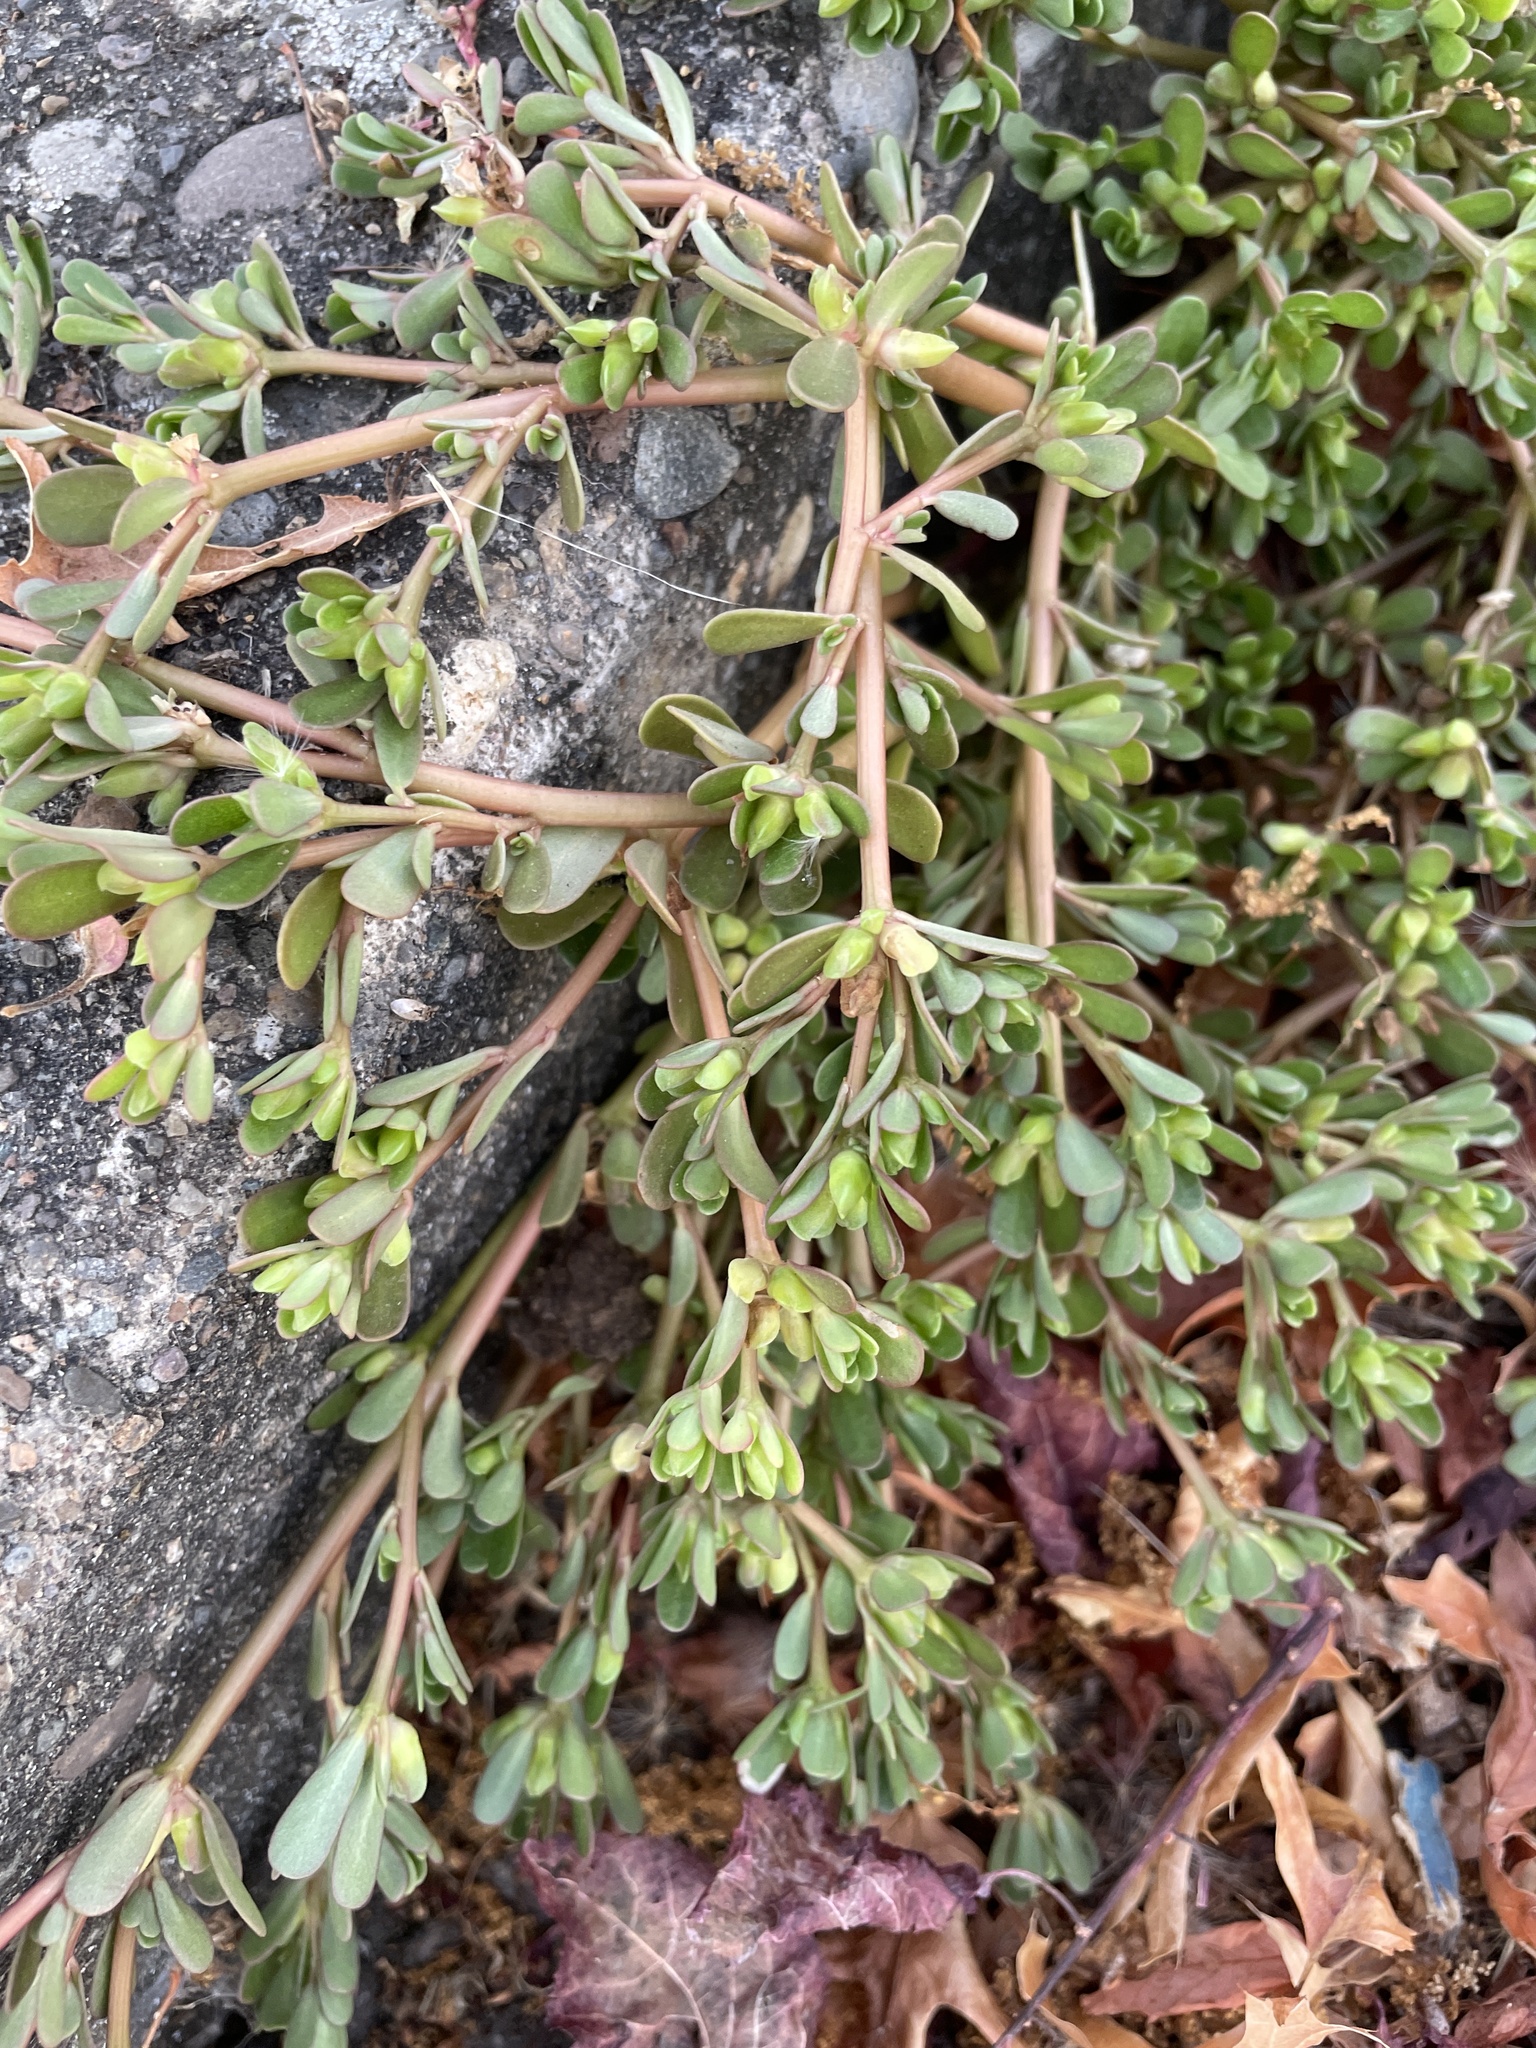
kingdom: Plantae
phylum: Tracheophyta
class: Magnoliopsida
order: Caryophyllales
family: Portulacaceae
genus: Portulaca
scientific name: Portulaca oleracea
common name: Common purslane
